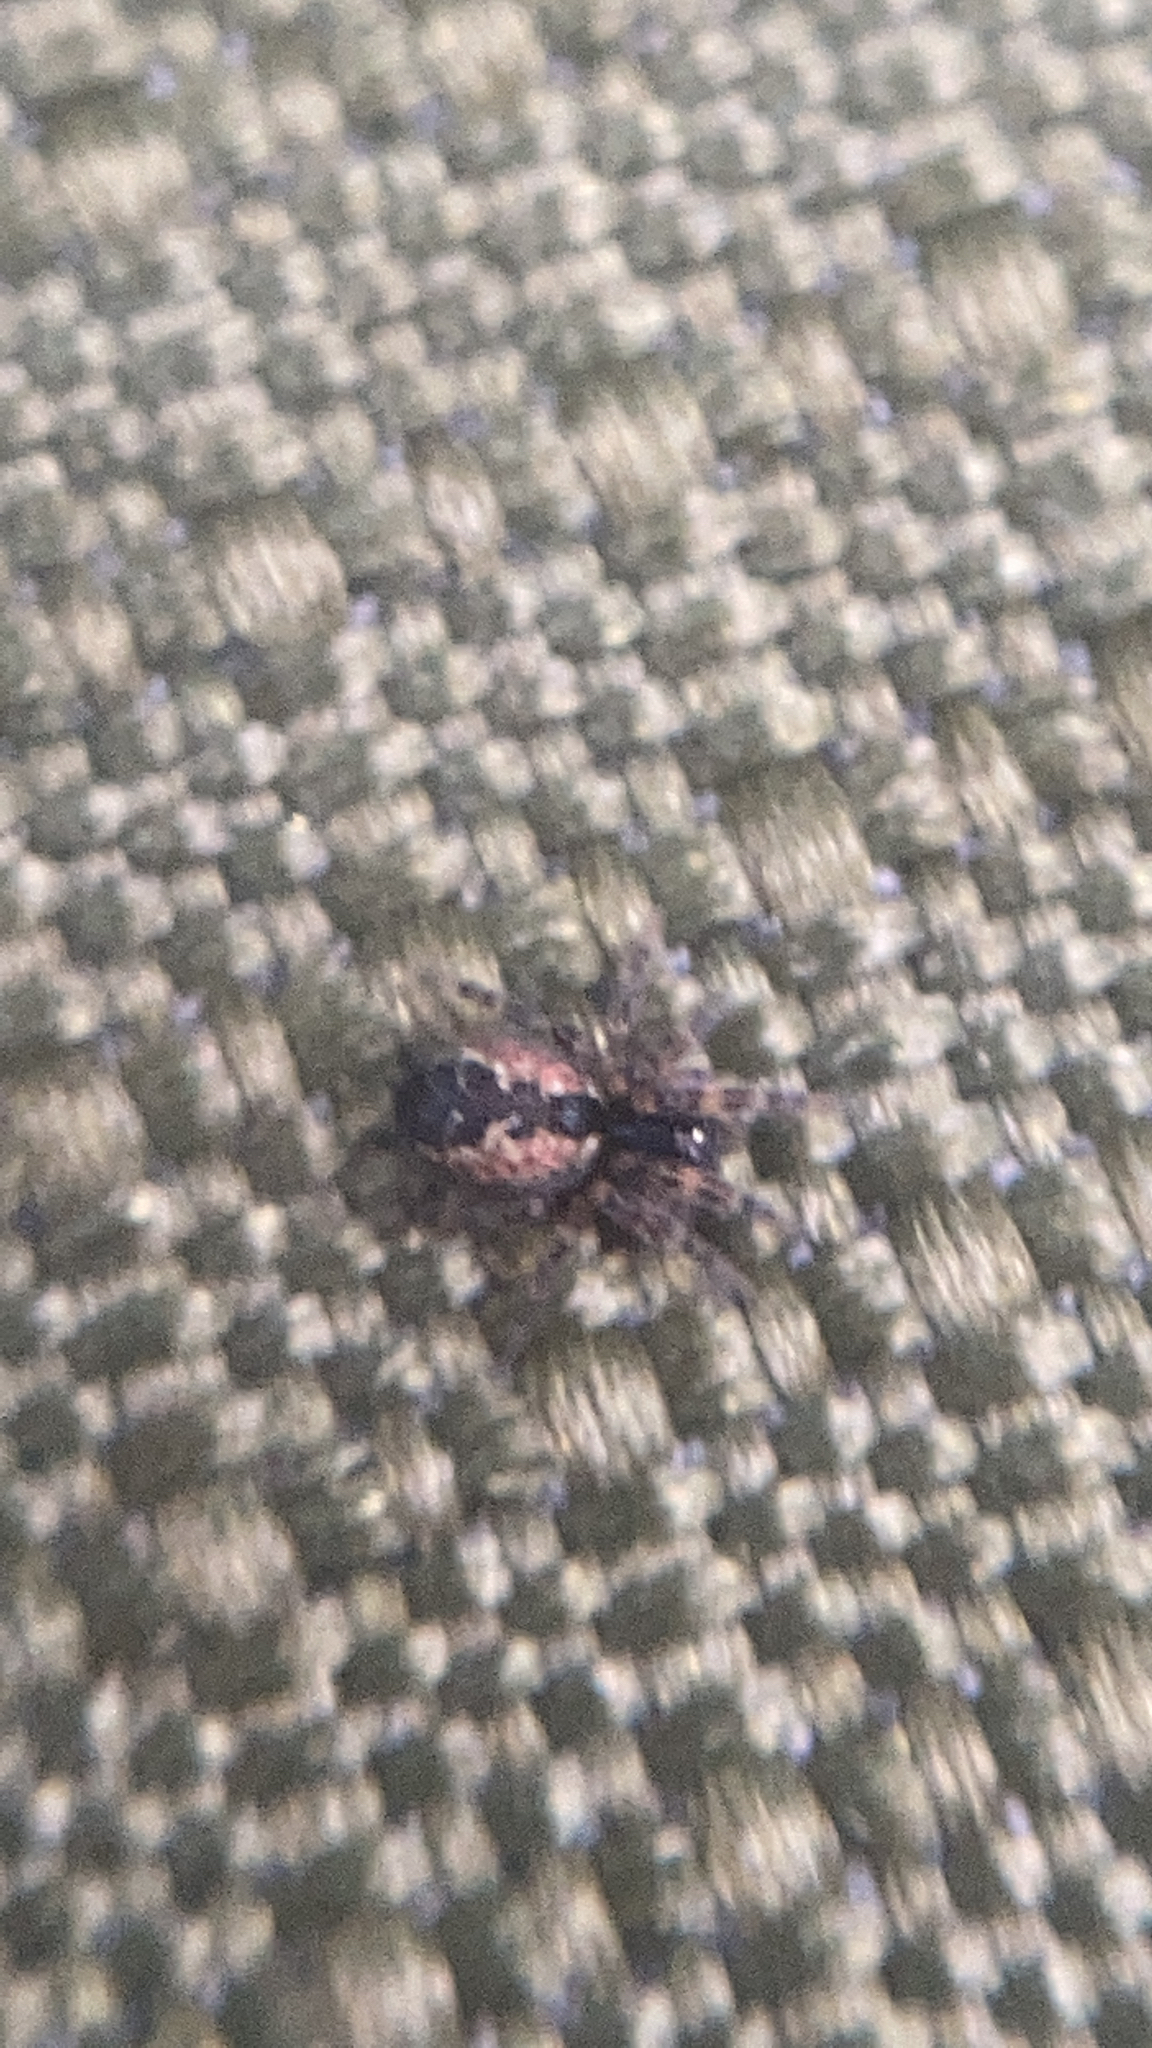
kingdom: Animalia
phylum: Arthropoda
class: Arachnida
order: Araneae
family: Dictynidae
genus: Lathys
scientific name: Lathys humilis
